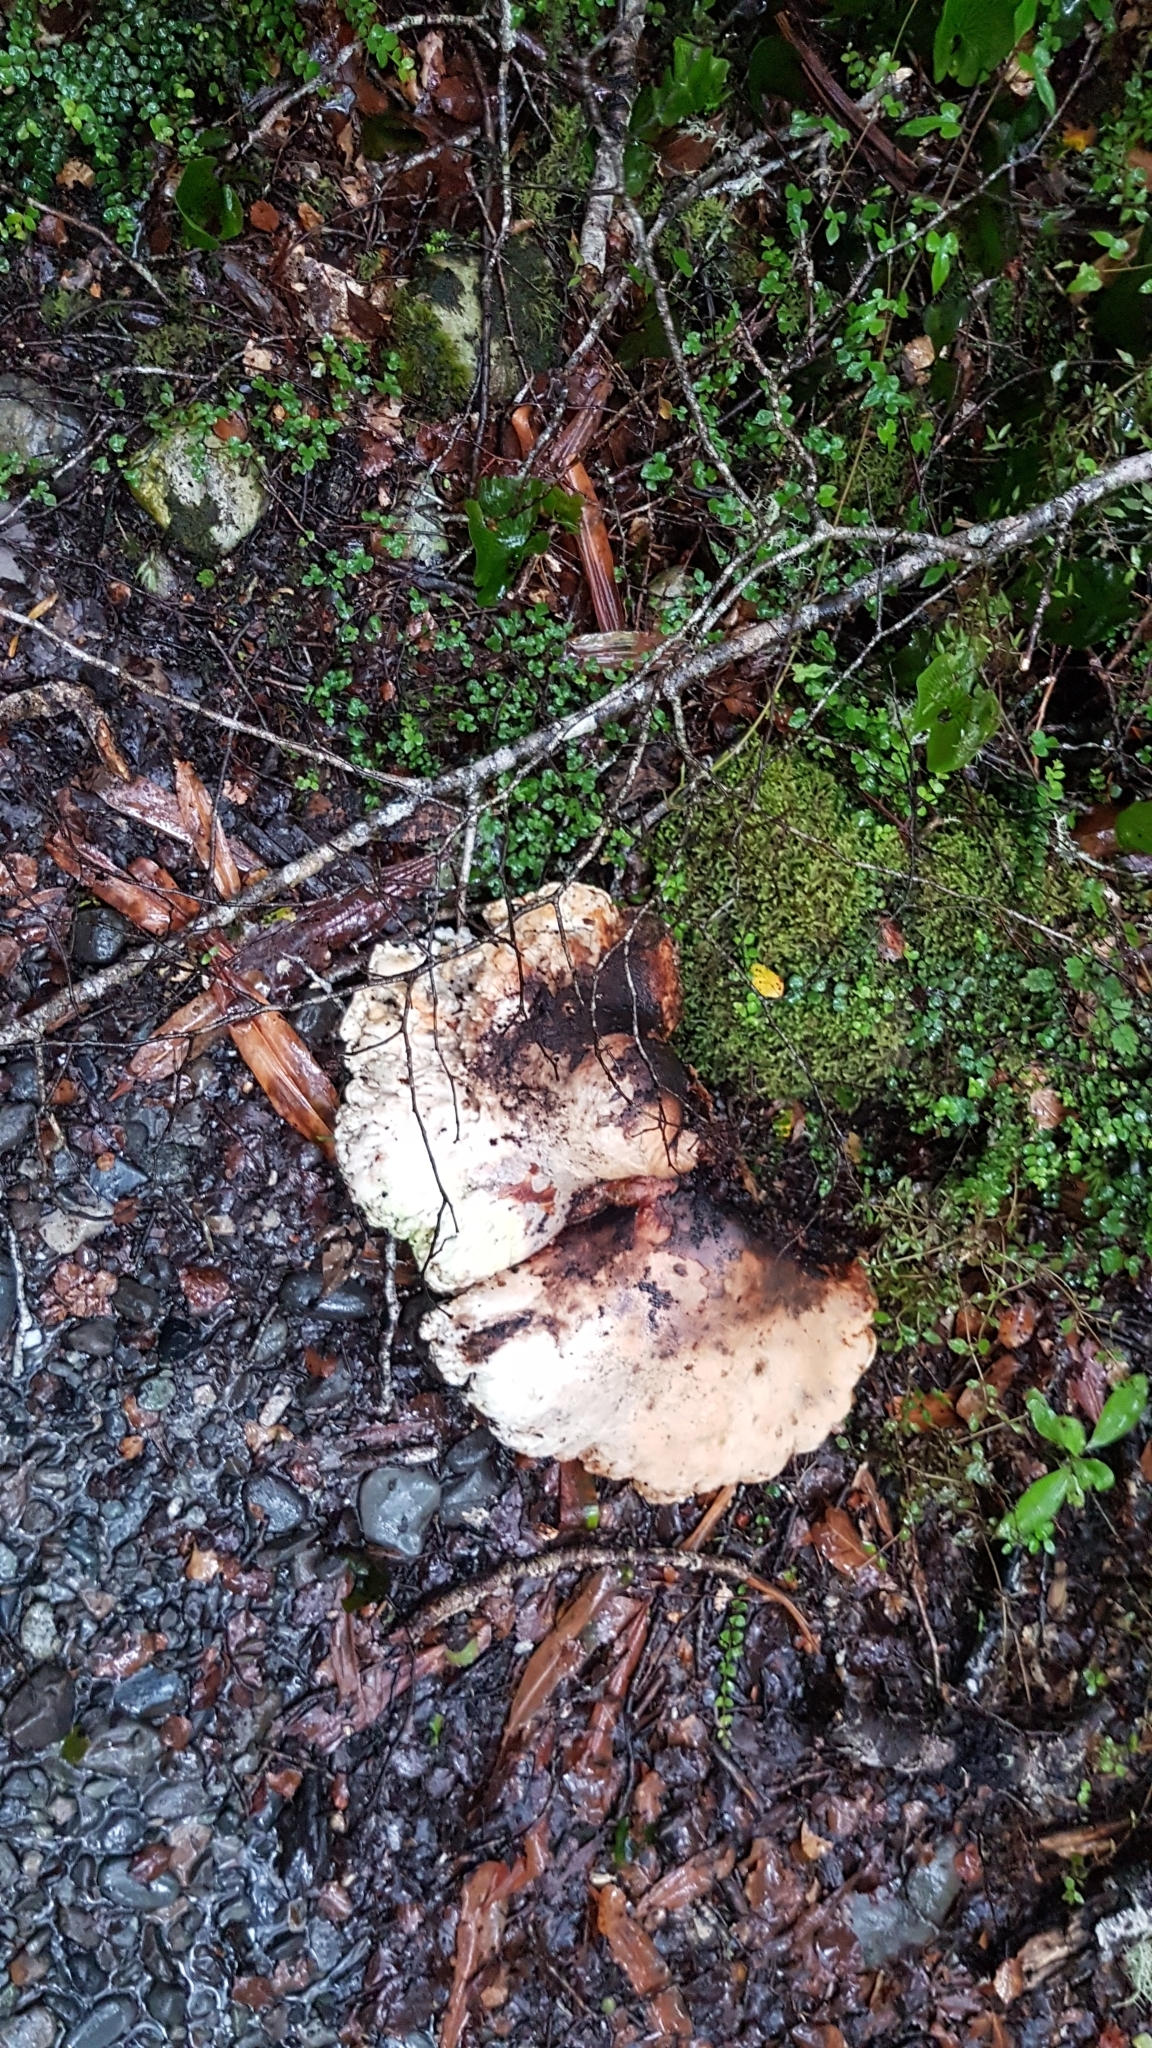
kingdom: Fungi
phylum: Basidiomycota
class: Agaricomycetes
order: Polyporales
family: Laetiporaceae
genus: Laetiporus
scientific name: Laetiporus portentosus
